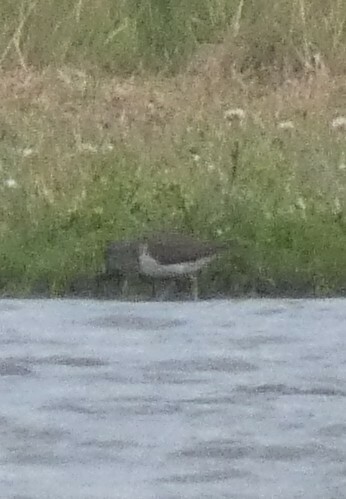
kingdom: Animalia
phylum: Chordata
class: Aves
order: Charadriiformes
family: Scolopacidae
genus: Actitis
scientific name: Actitis hypoleucos
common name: Common sandpiper
